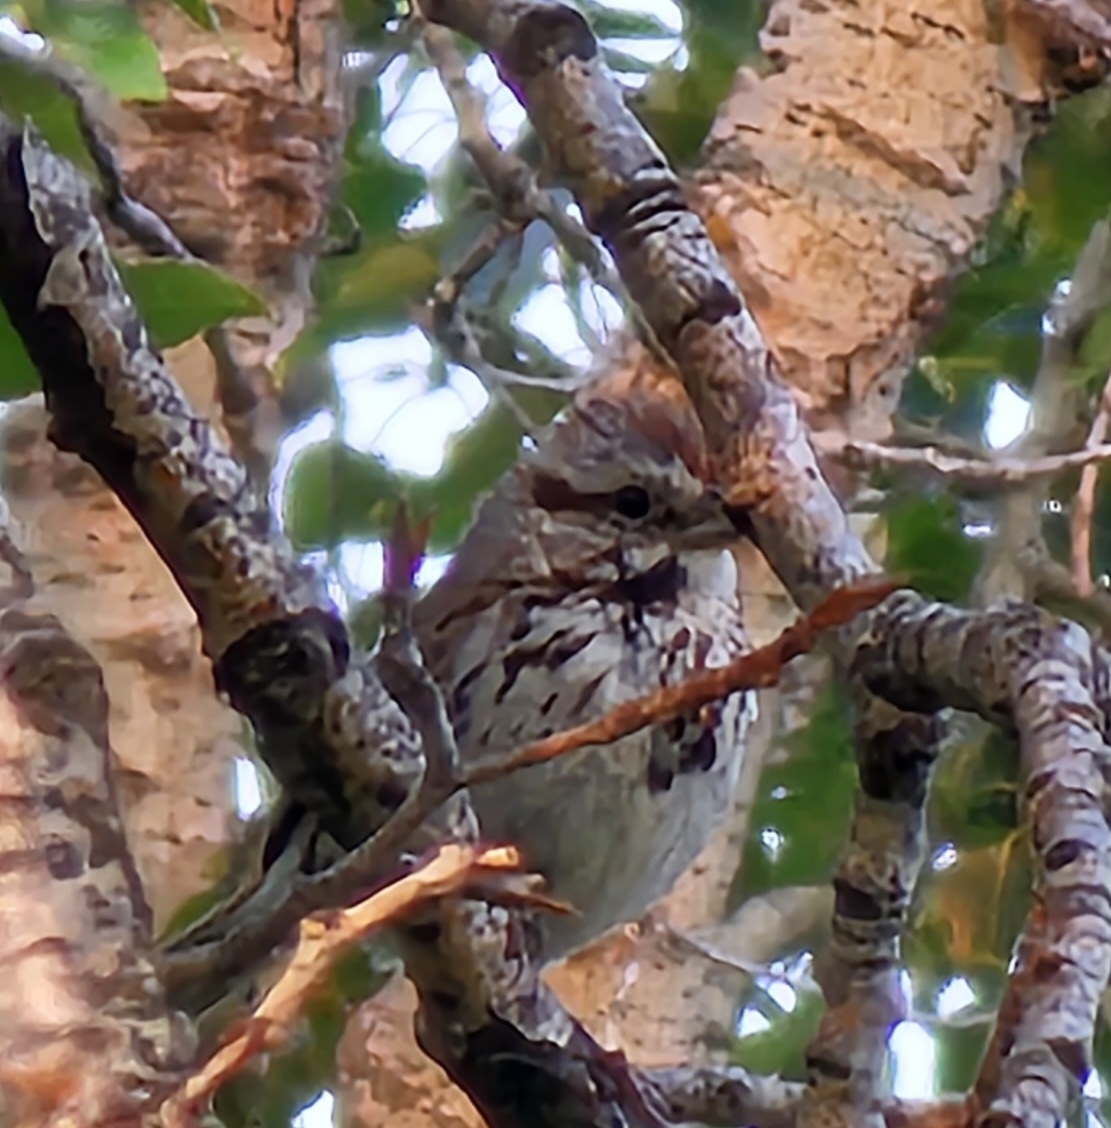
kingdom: Animalia
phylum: Chordata
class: Aves
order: Passeriformes
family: Passerellidae
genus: Melospiza
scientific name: Melospiza melodia
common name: Song sparrow
